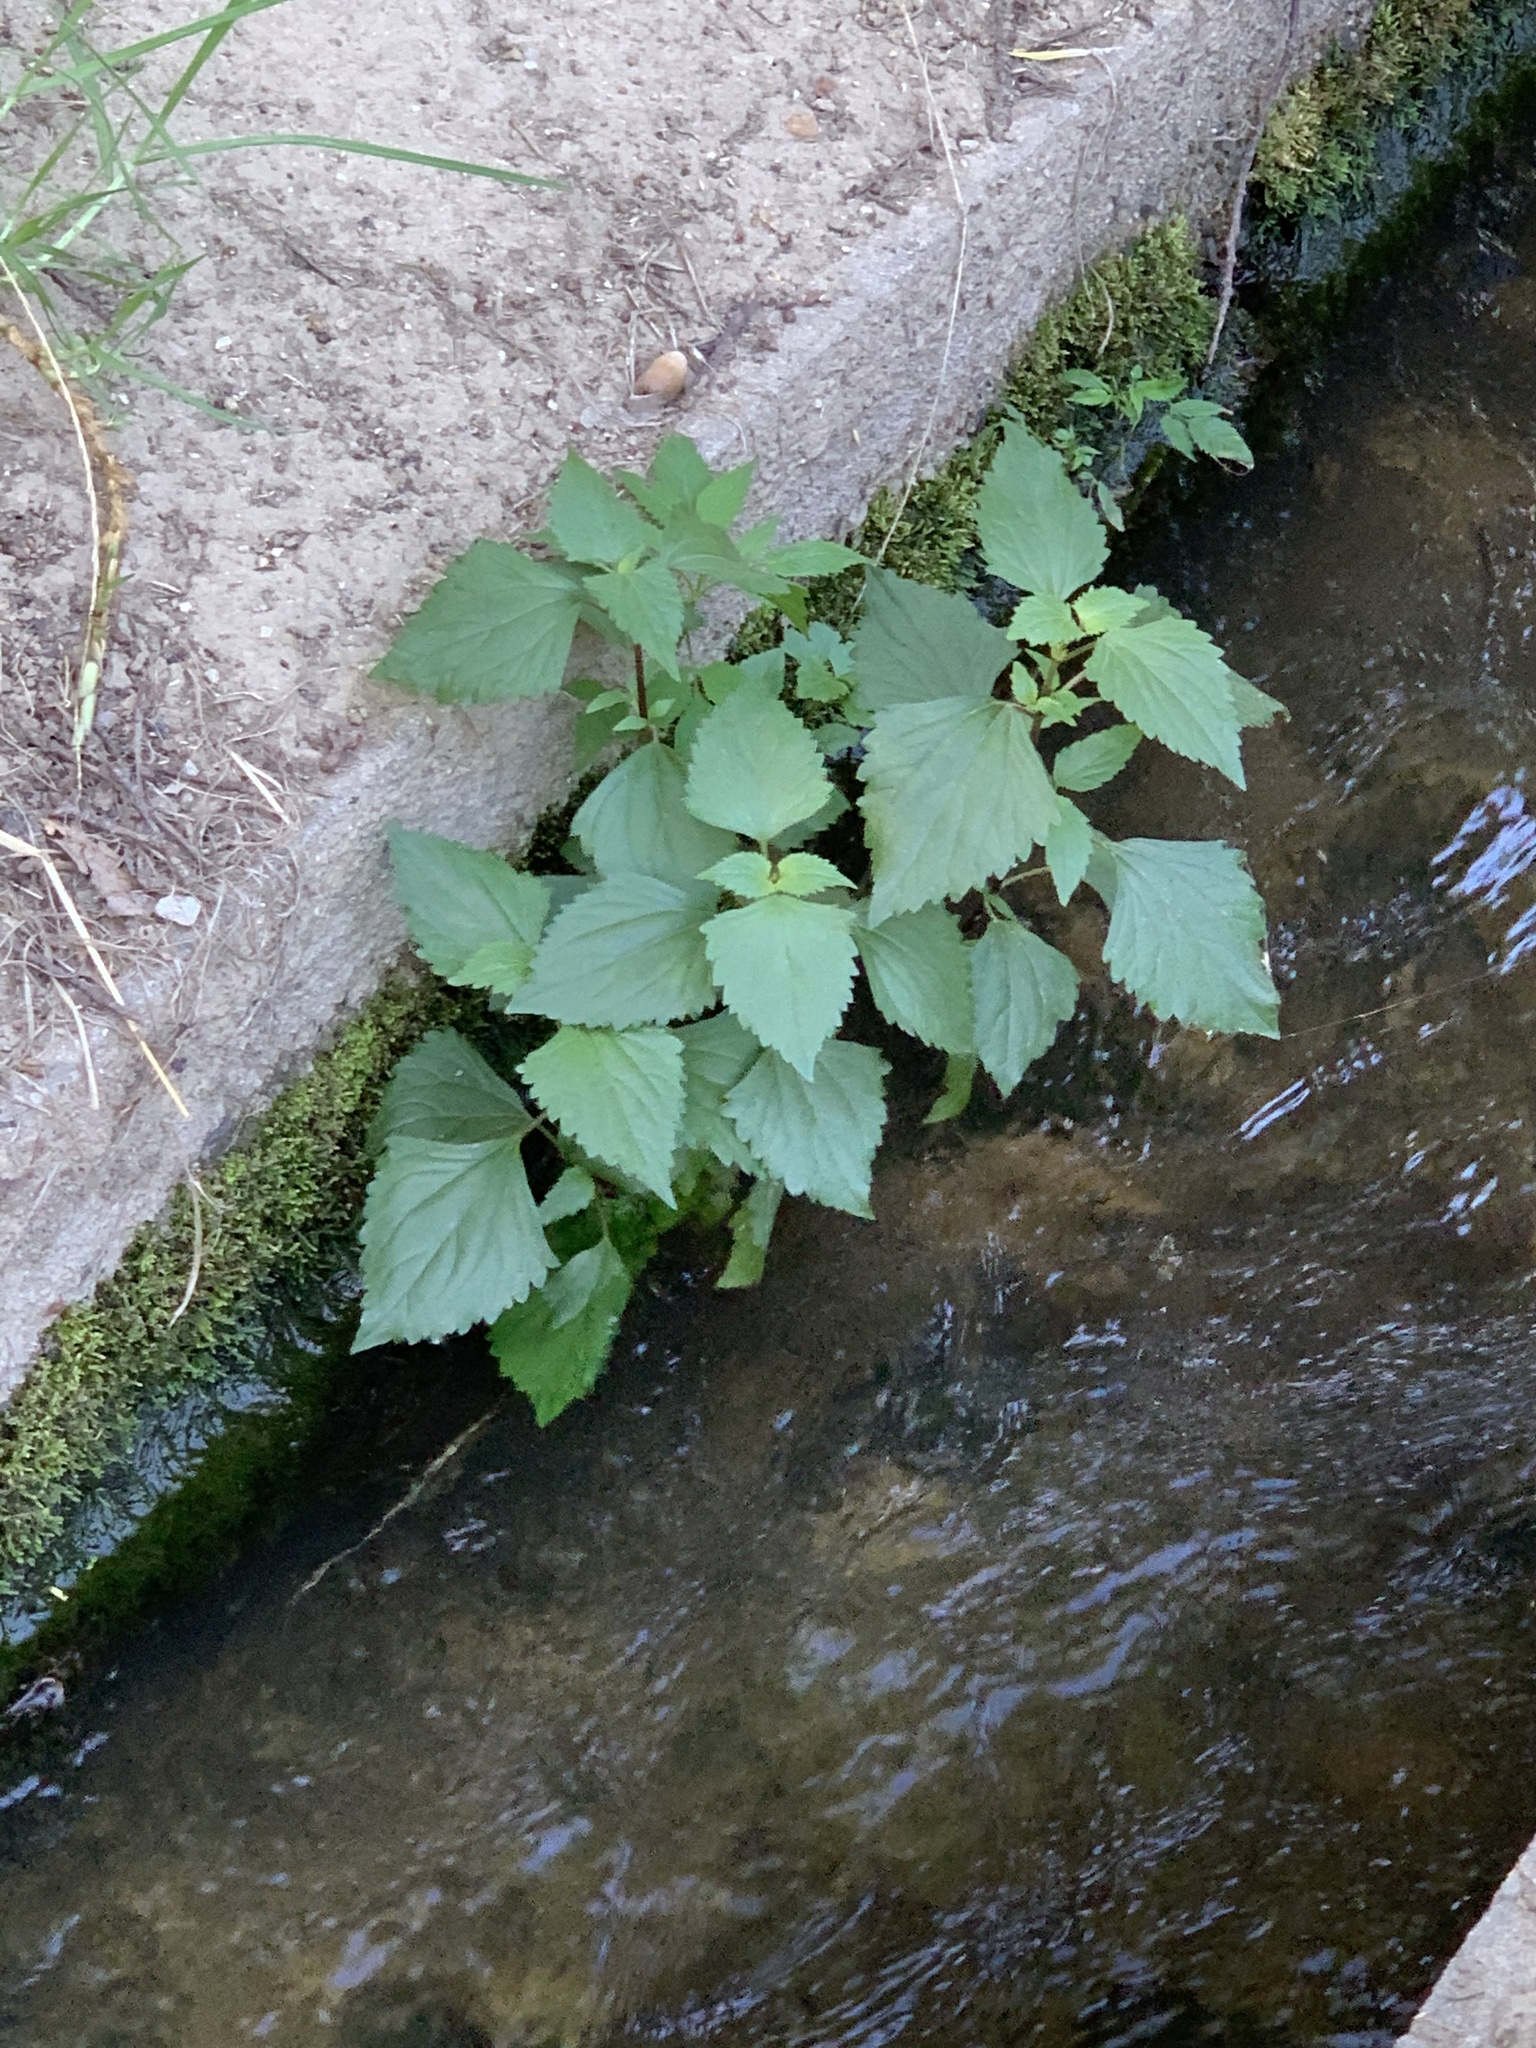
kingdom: Plantae
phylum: Tracheophyta
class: Magnoliopsida
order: Asterales
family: Asteraceae
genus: Ageratina
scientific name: Ageratina adenophora
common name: Sticky snakeroot
